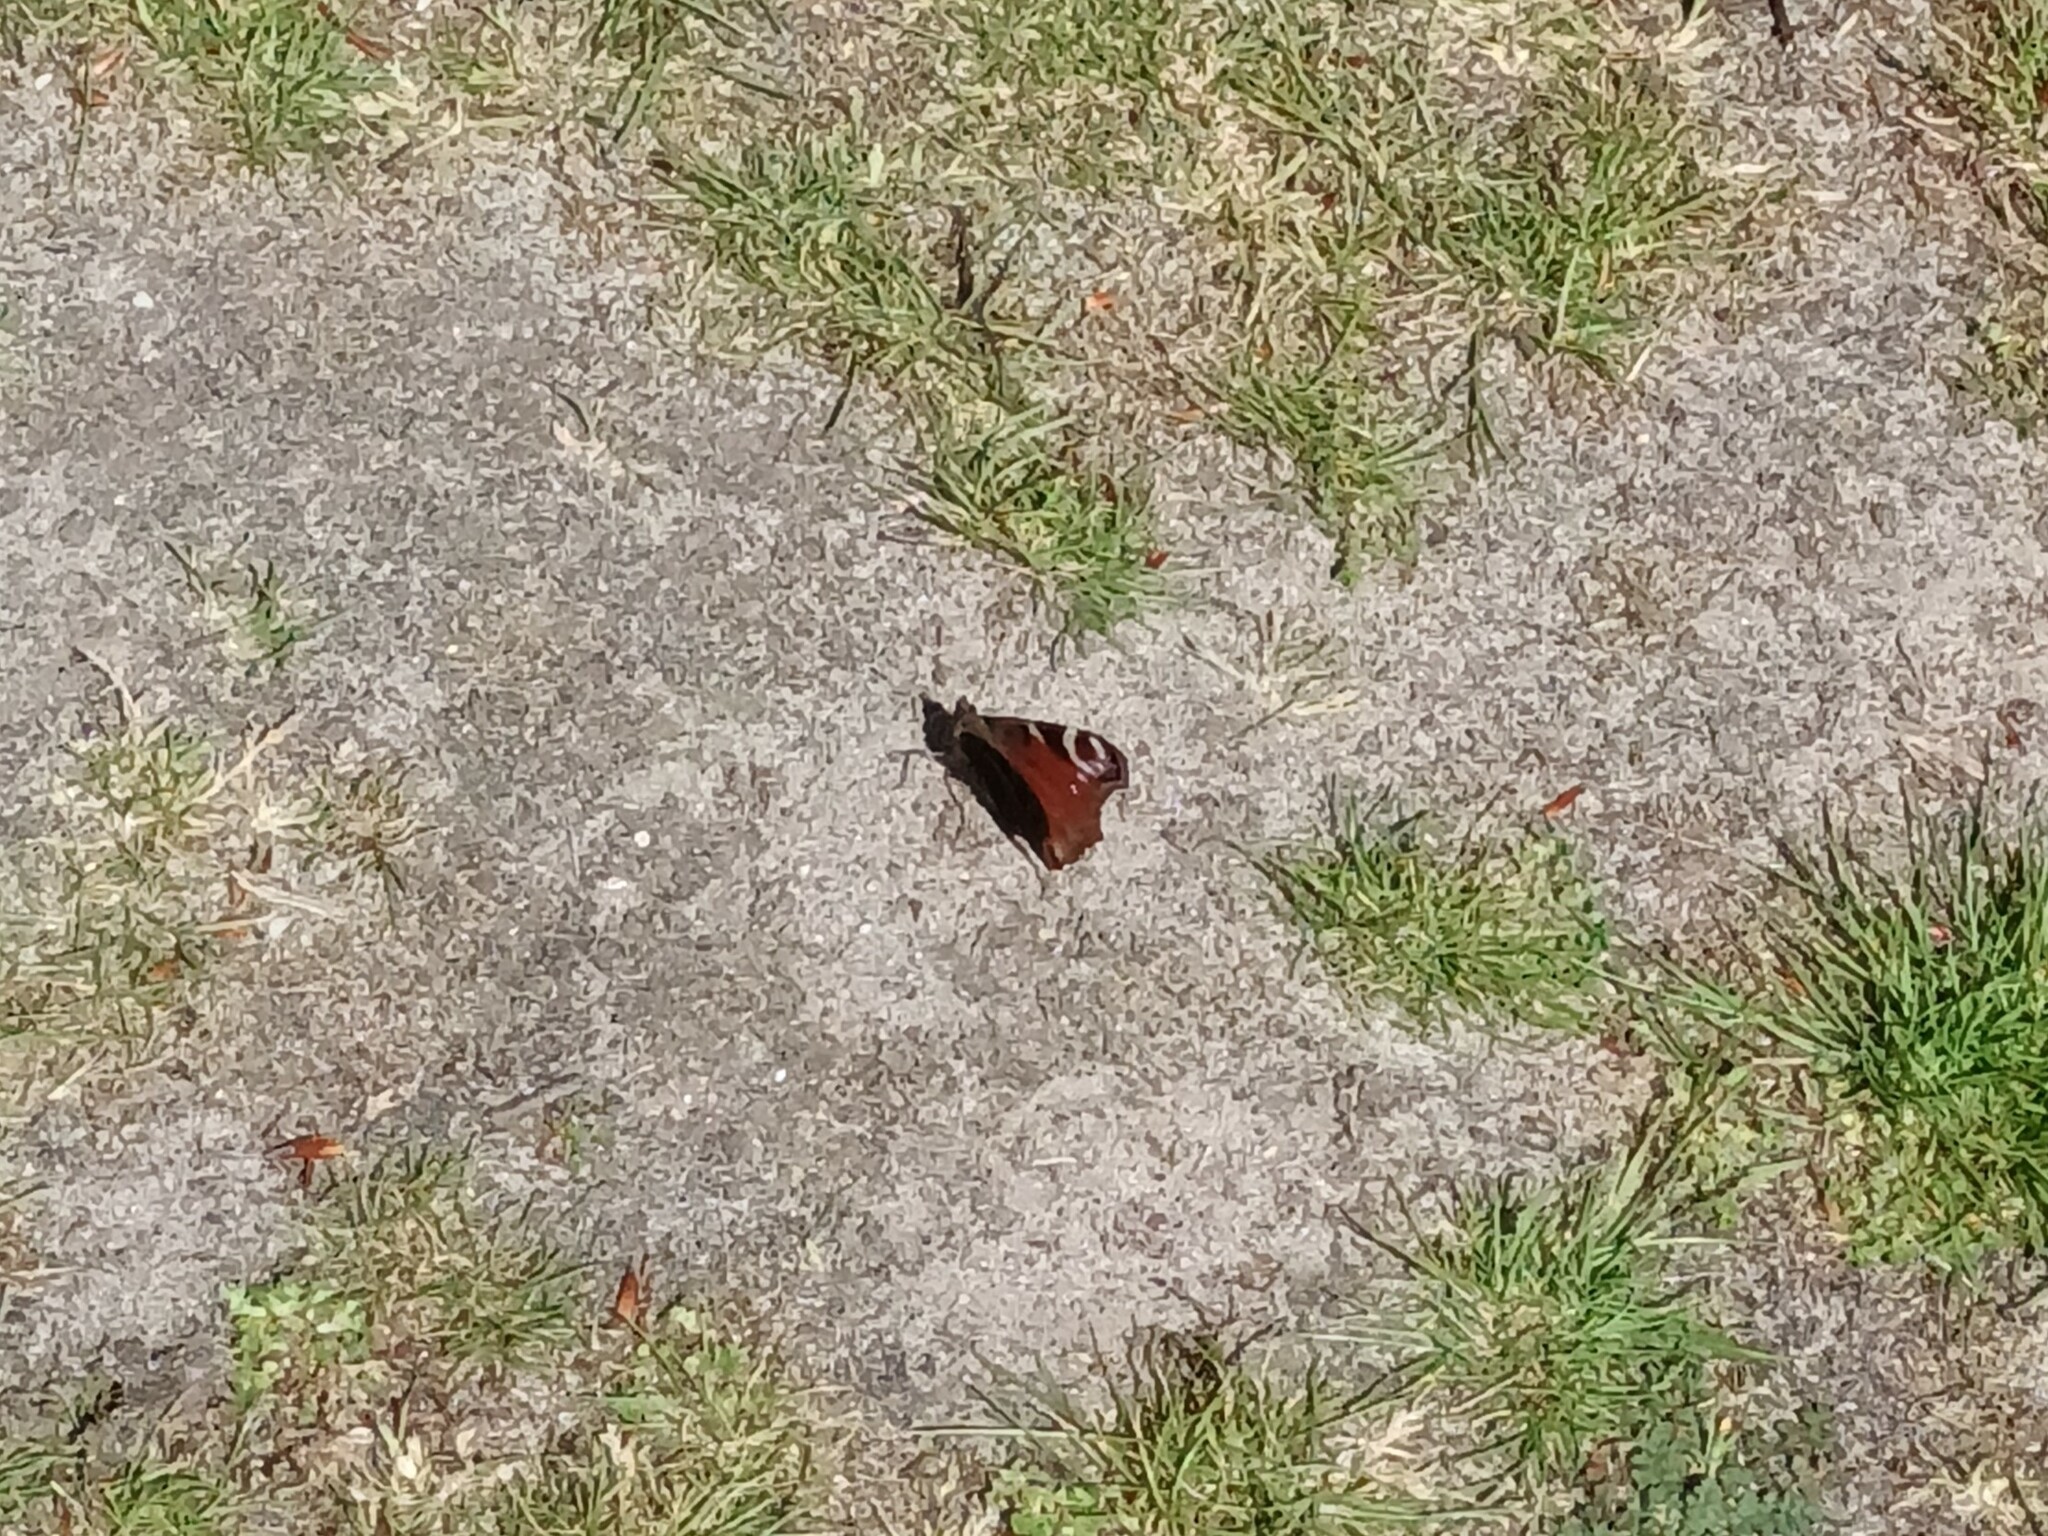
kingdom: Animalia
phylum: Arthropoda
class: Insecta
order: Lepidoptera
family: Nymphalidae
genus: Aglais
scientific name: Aglais io
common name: Peacock
